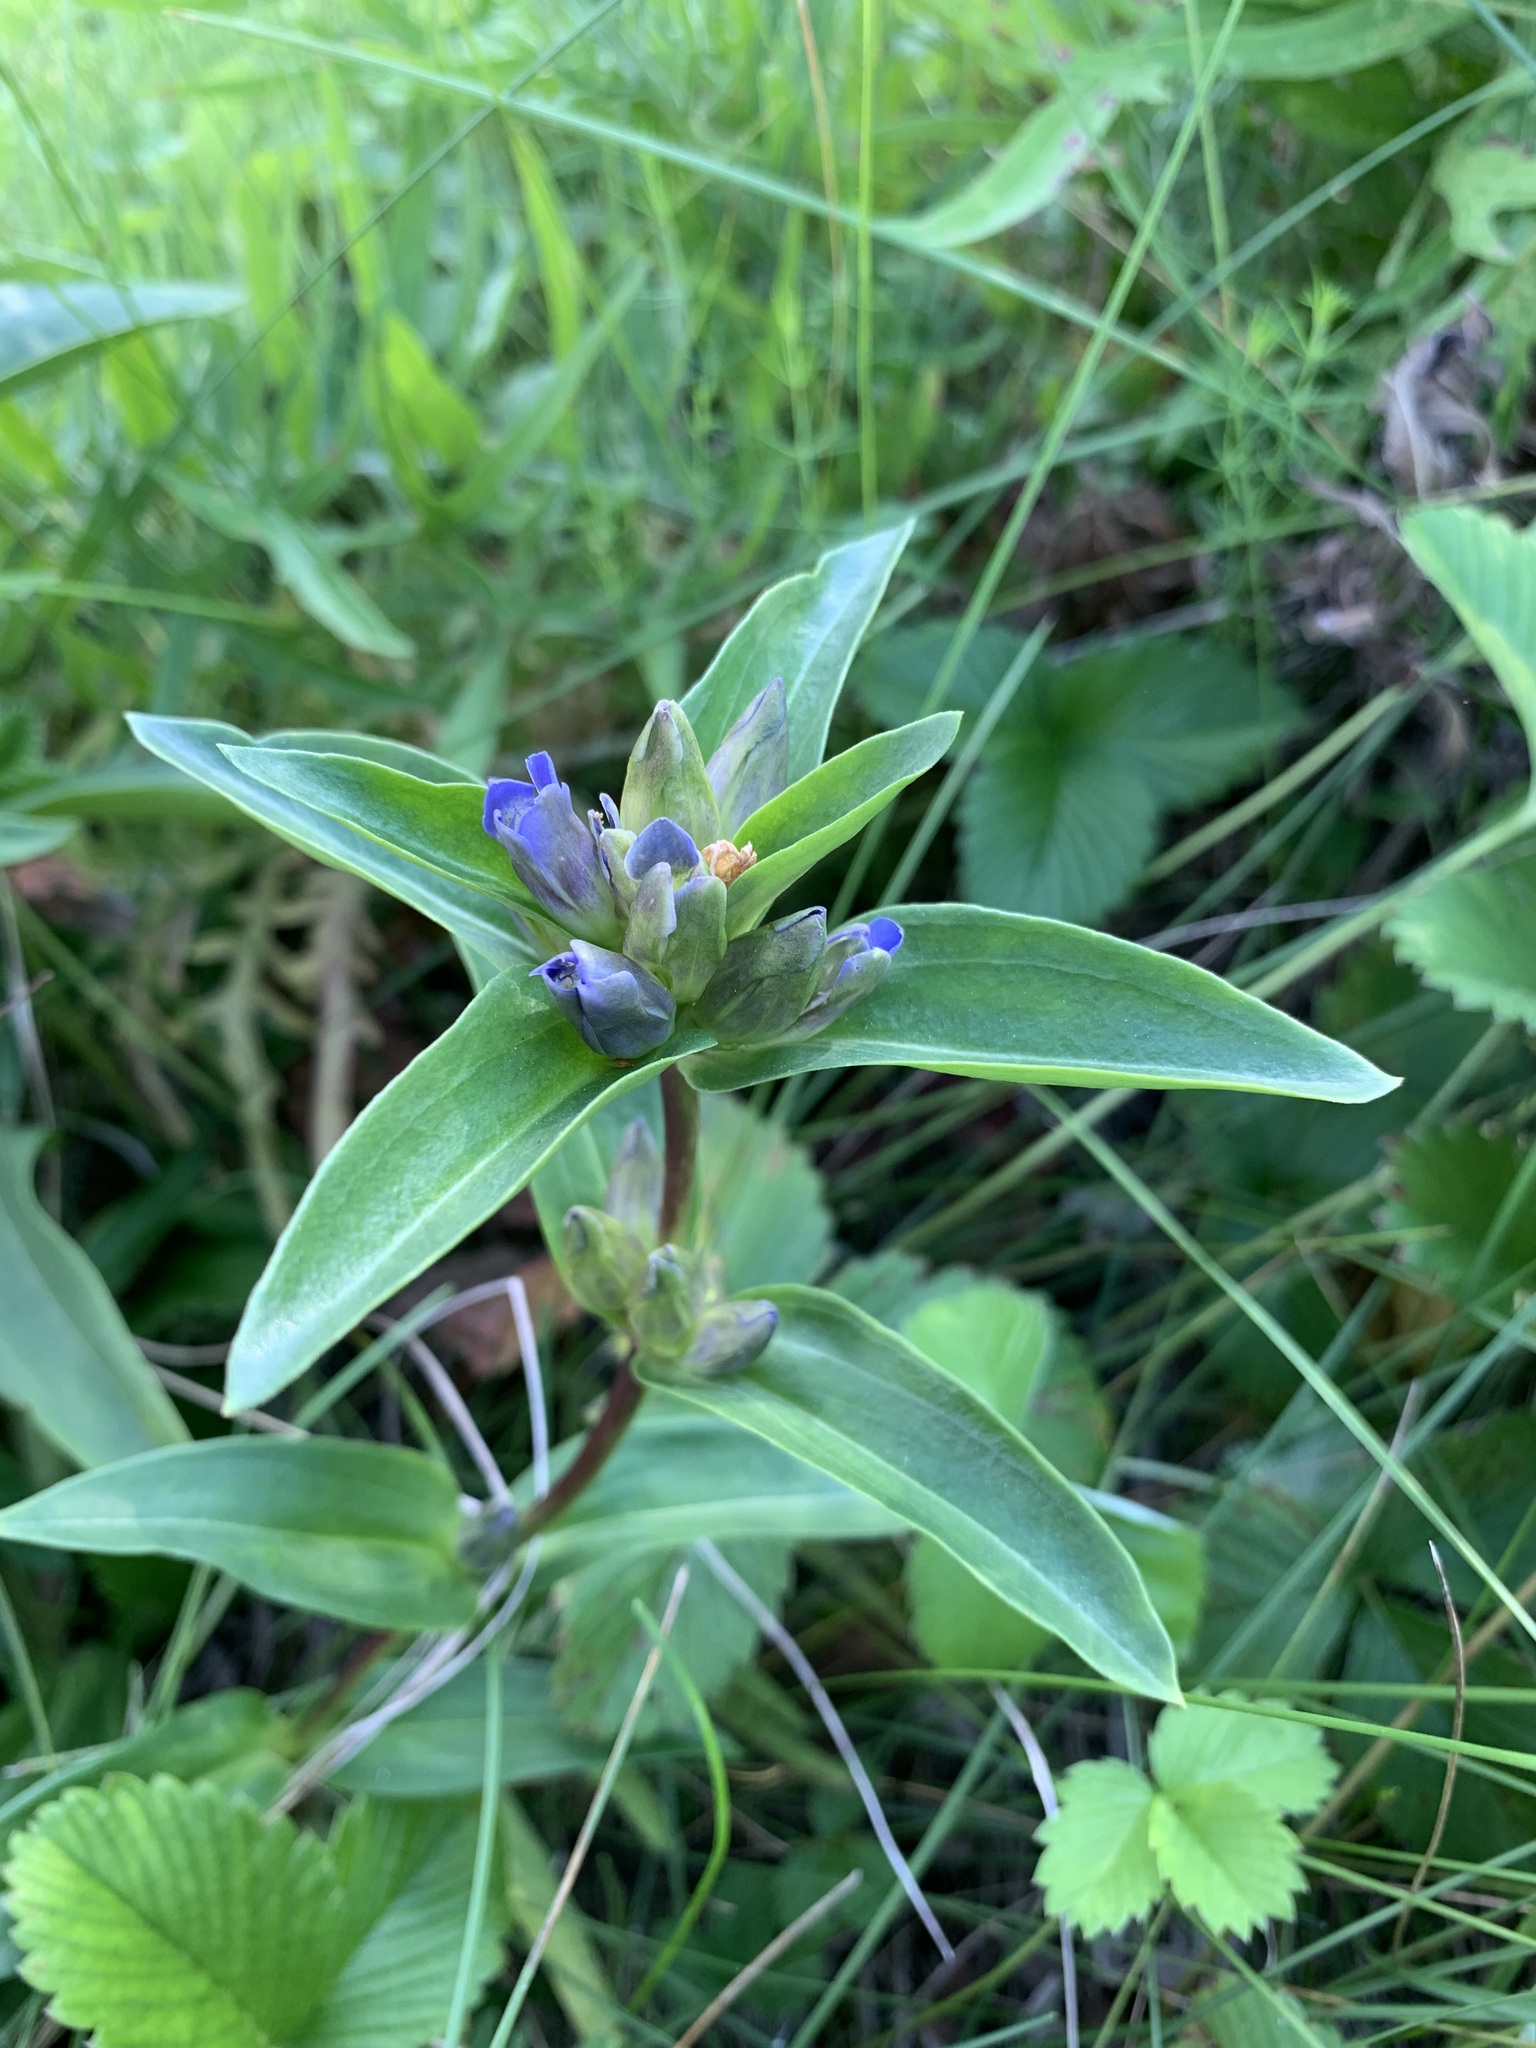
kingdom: Plantae
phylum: Tracheophyta
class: Magnoliopsida
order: Gentianales
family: Gentianaceae
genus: Gentiana
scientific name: Gentiana cruciata
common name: Cross gentian
